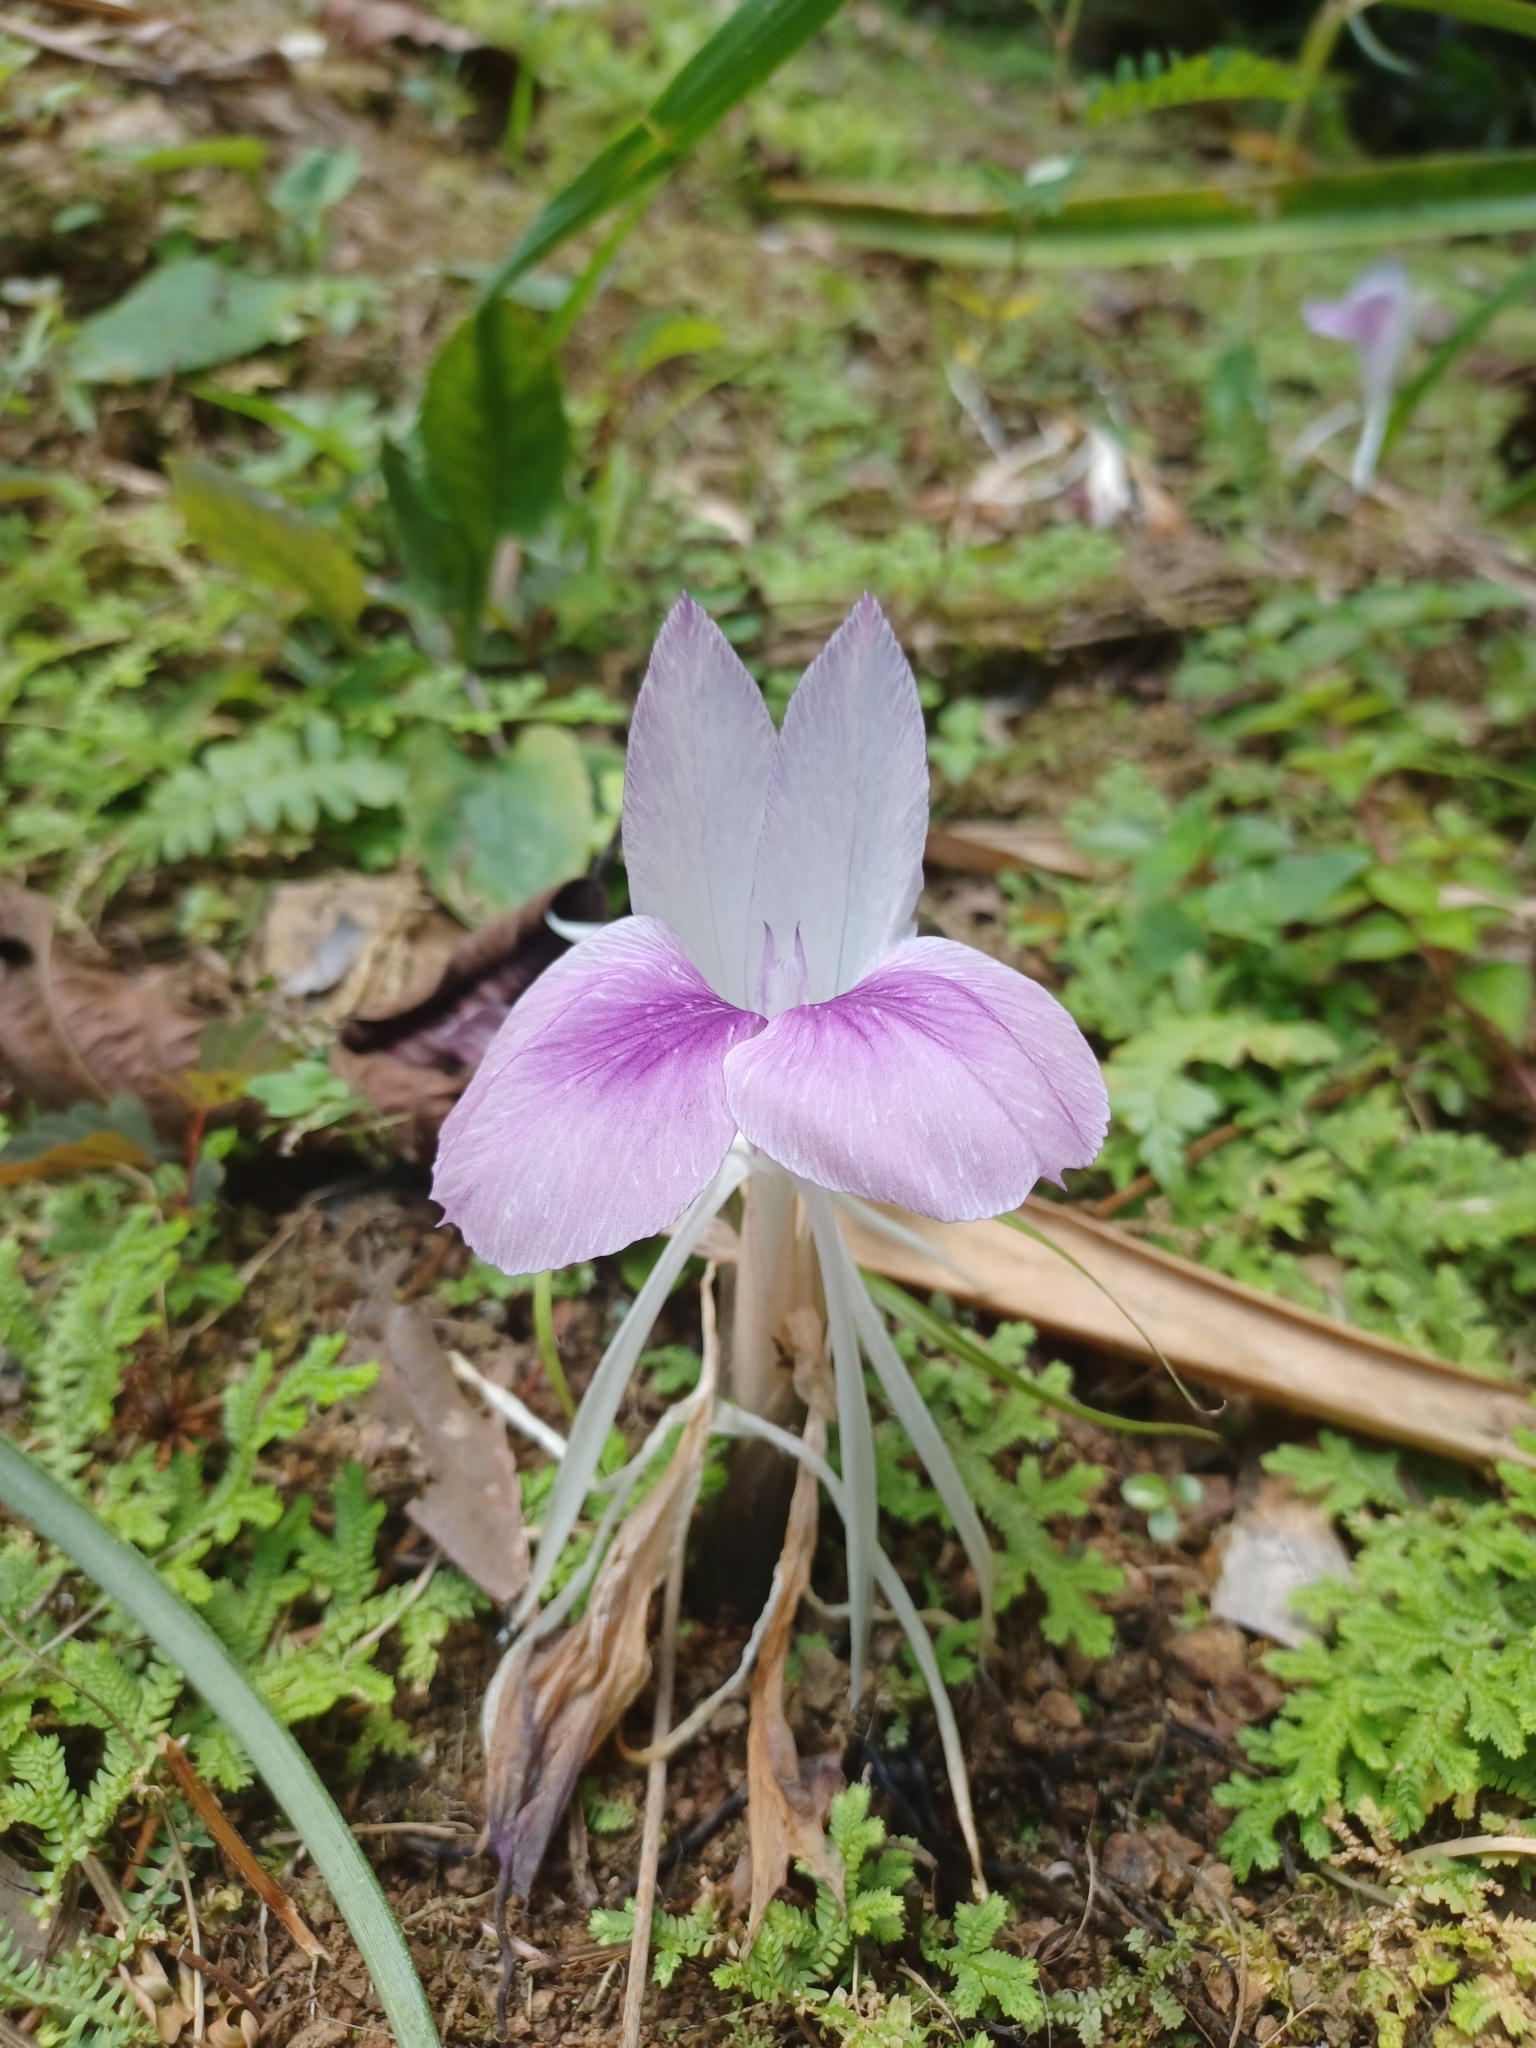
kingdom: Plantae
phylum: Tracheophyta
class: Liliopsida
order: Zingiberales
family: Zingiberaceae
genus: Kaempferia
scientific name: Kaempferia rotunda
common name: Tropical-crocus
